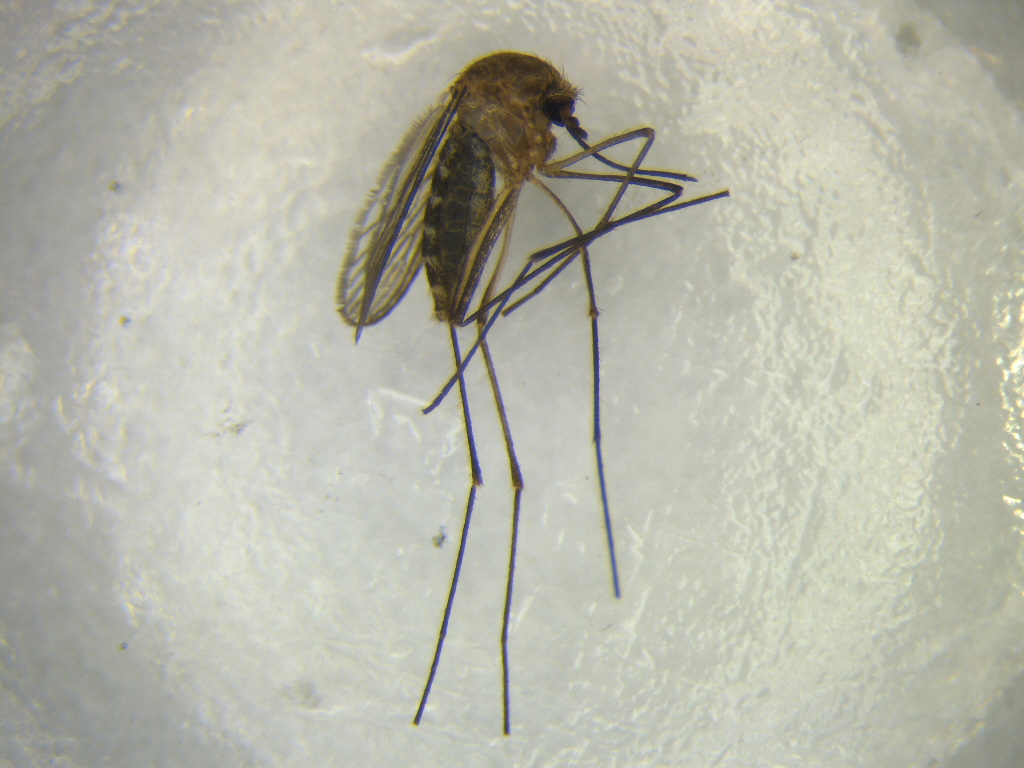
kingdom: Animalia
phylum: Arthropoda
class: Insecta
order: Diptera
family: Culicidae
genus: Culex
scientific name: Culex pervigilans
